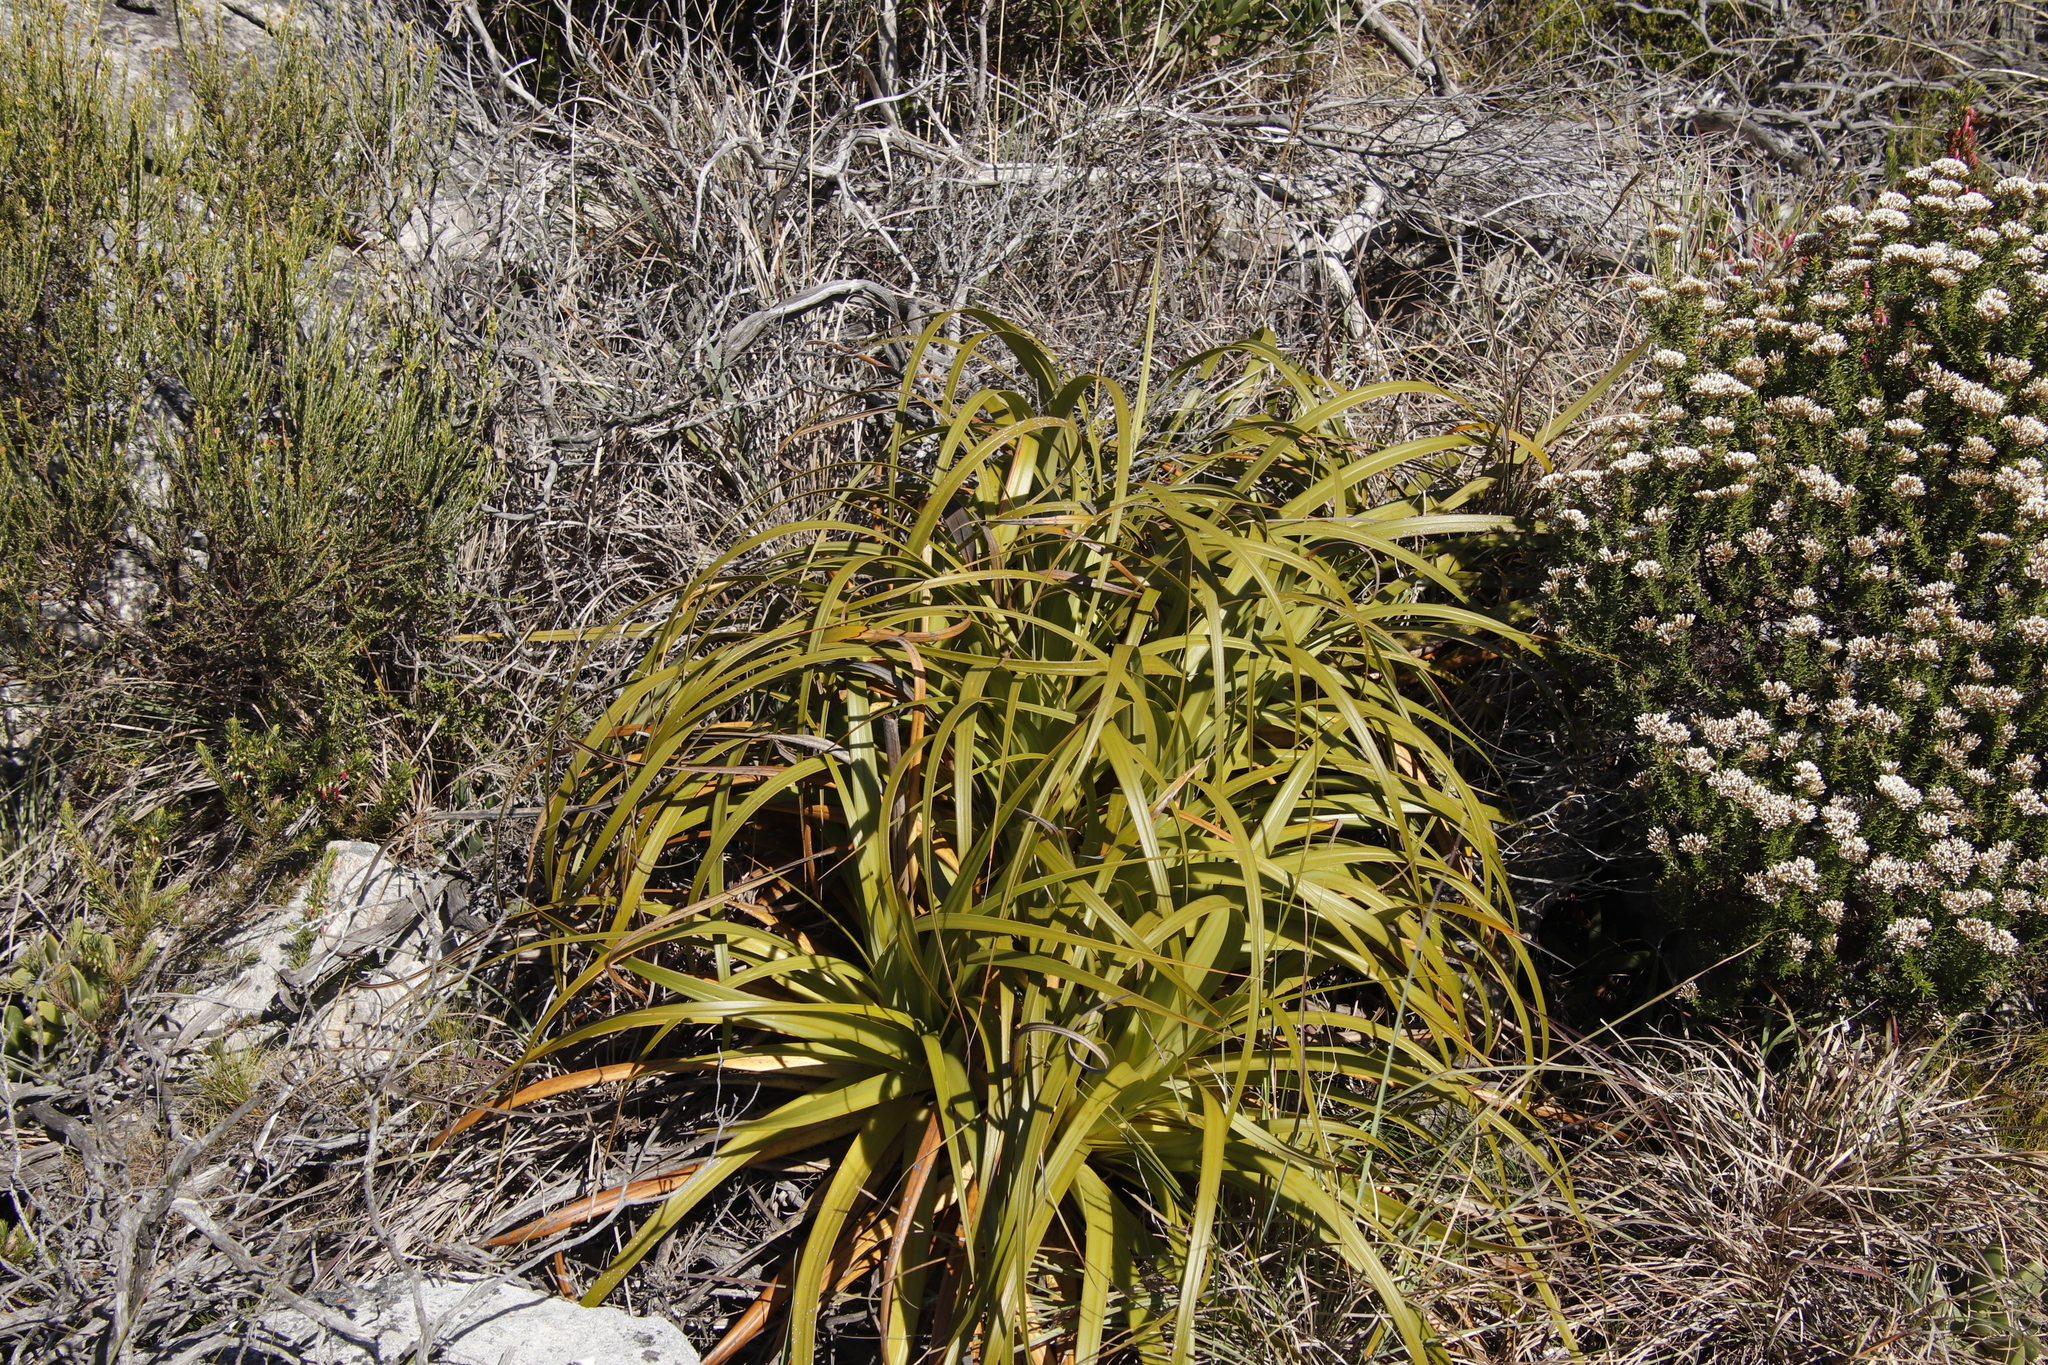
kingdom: Plantae
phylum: Tracheophyta
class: Liliopsida
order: Poales
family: Cyperaceae
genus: Tetraria
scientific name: Tetraria thermalis
